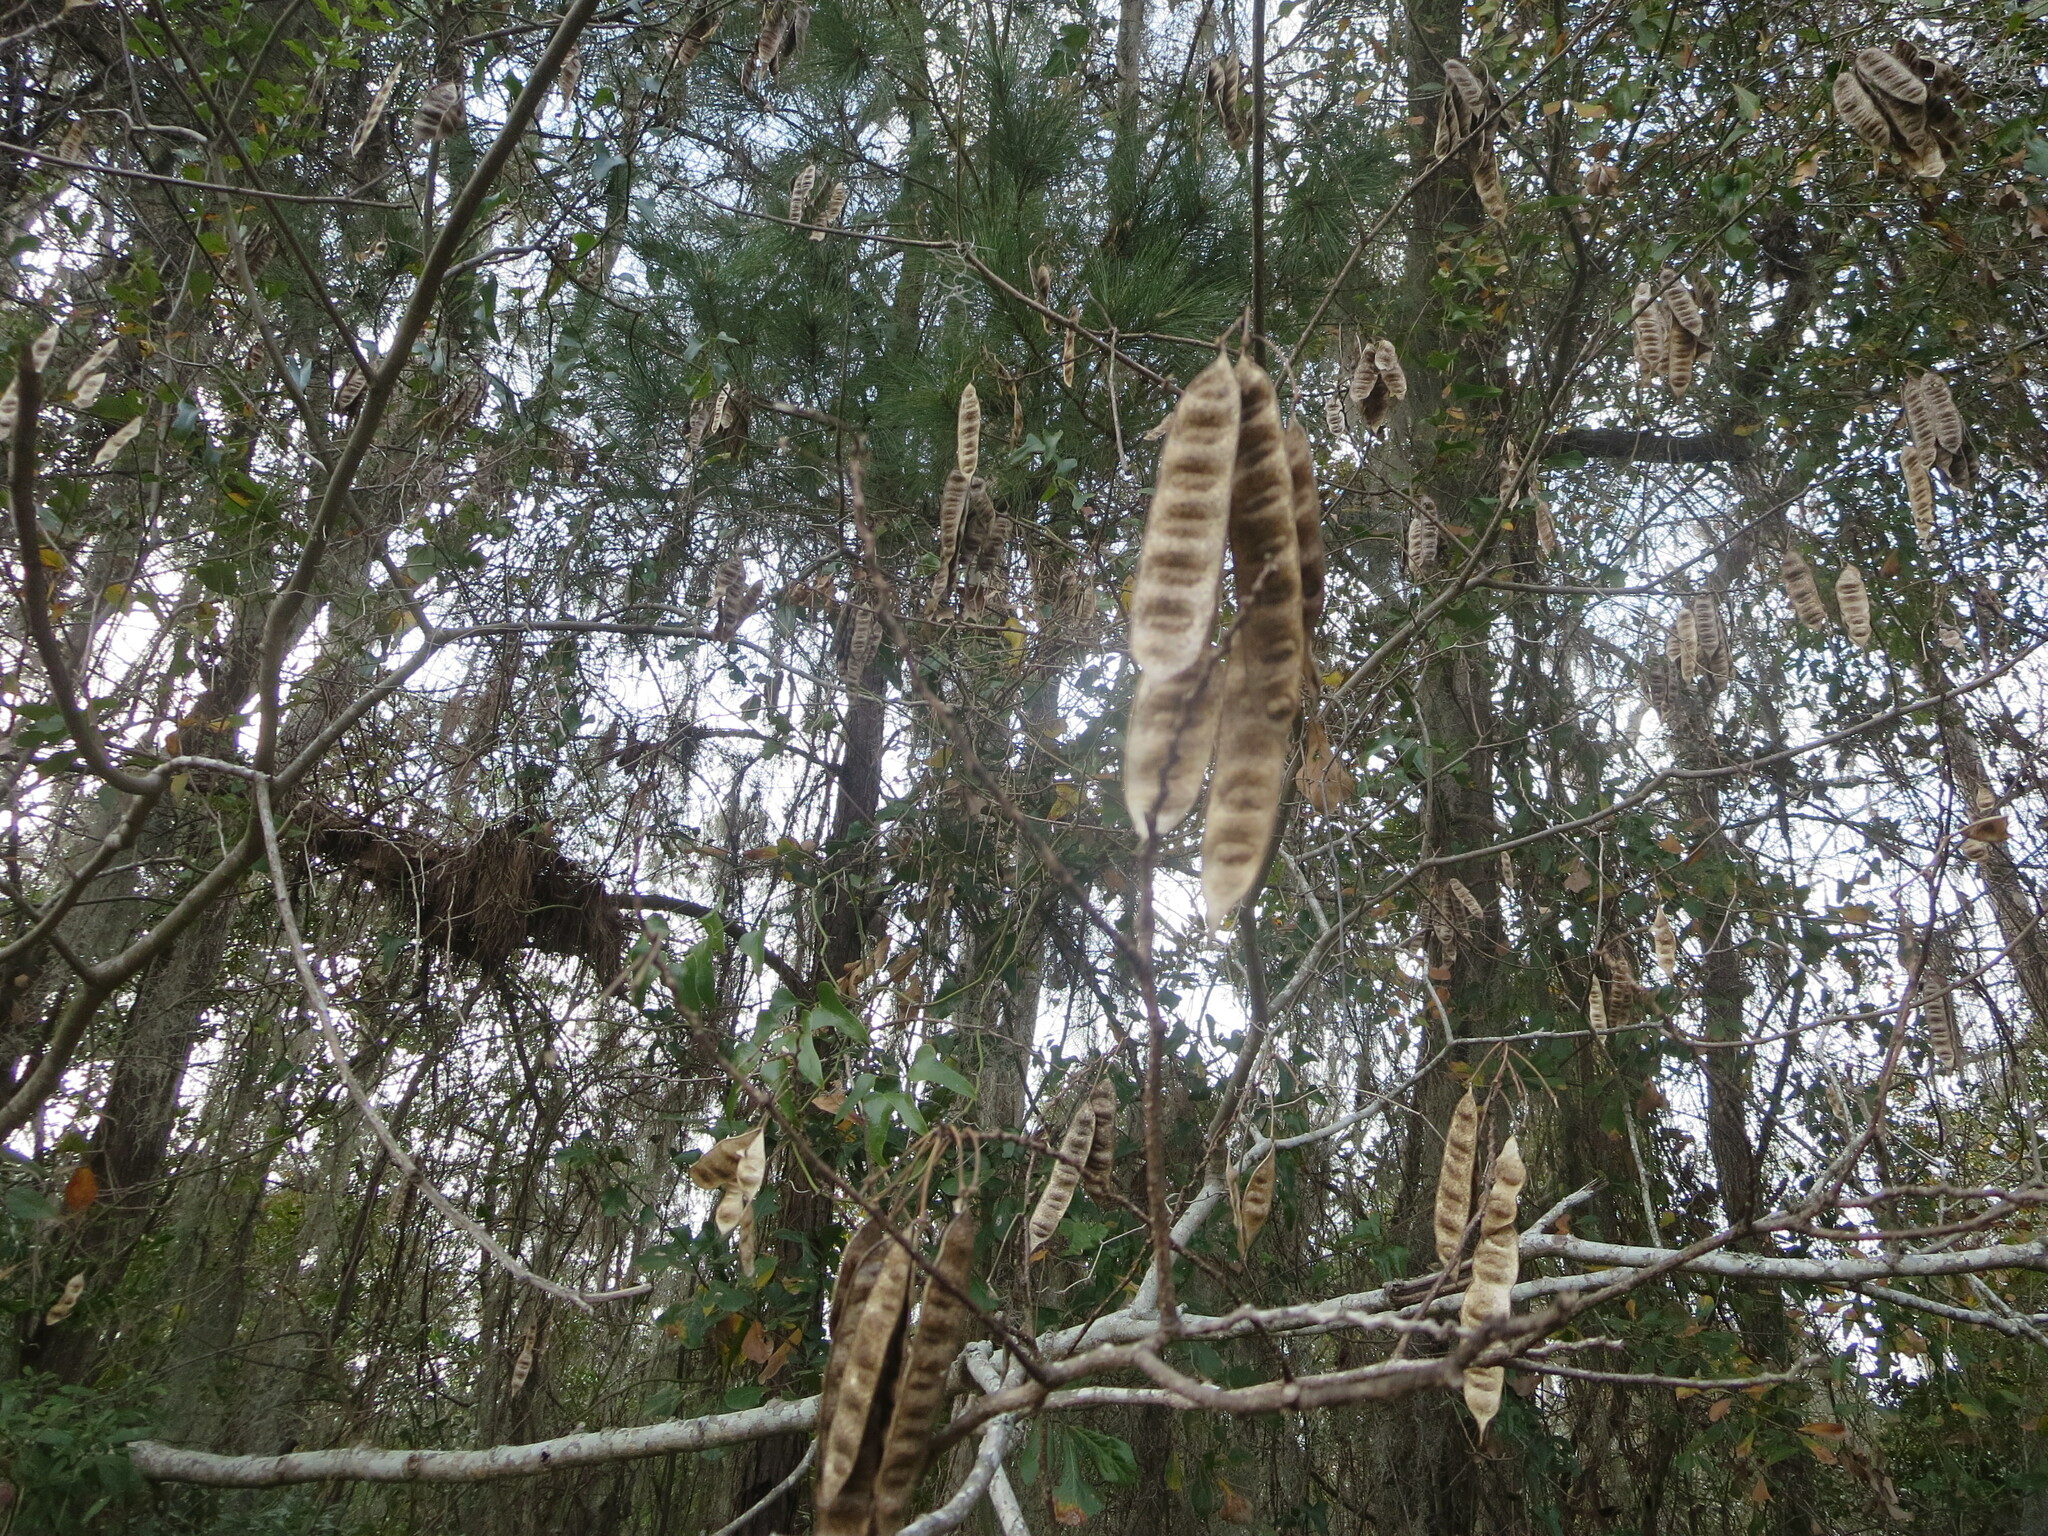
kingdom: Plantae
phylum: Tracheophyta
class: Magnoliopsida
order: Fabales
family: Fabaceae
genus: Albizia
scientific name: Albizia julibrissin
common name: Silktree
